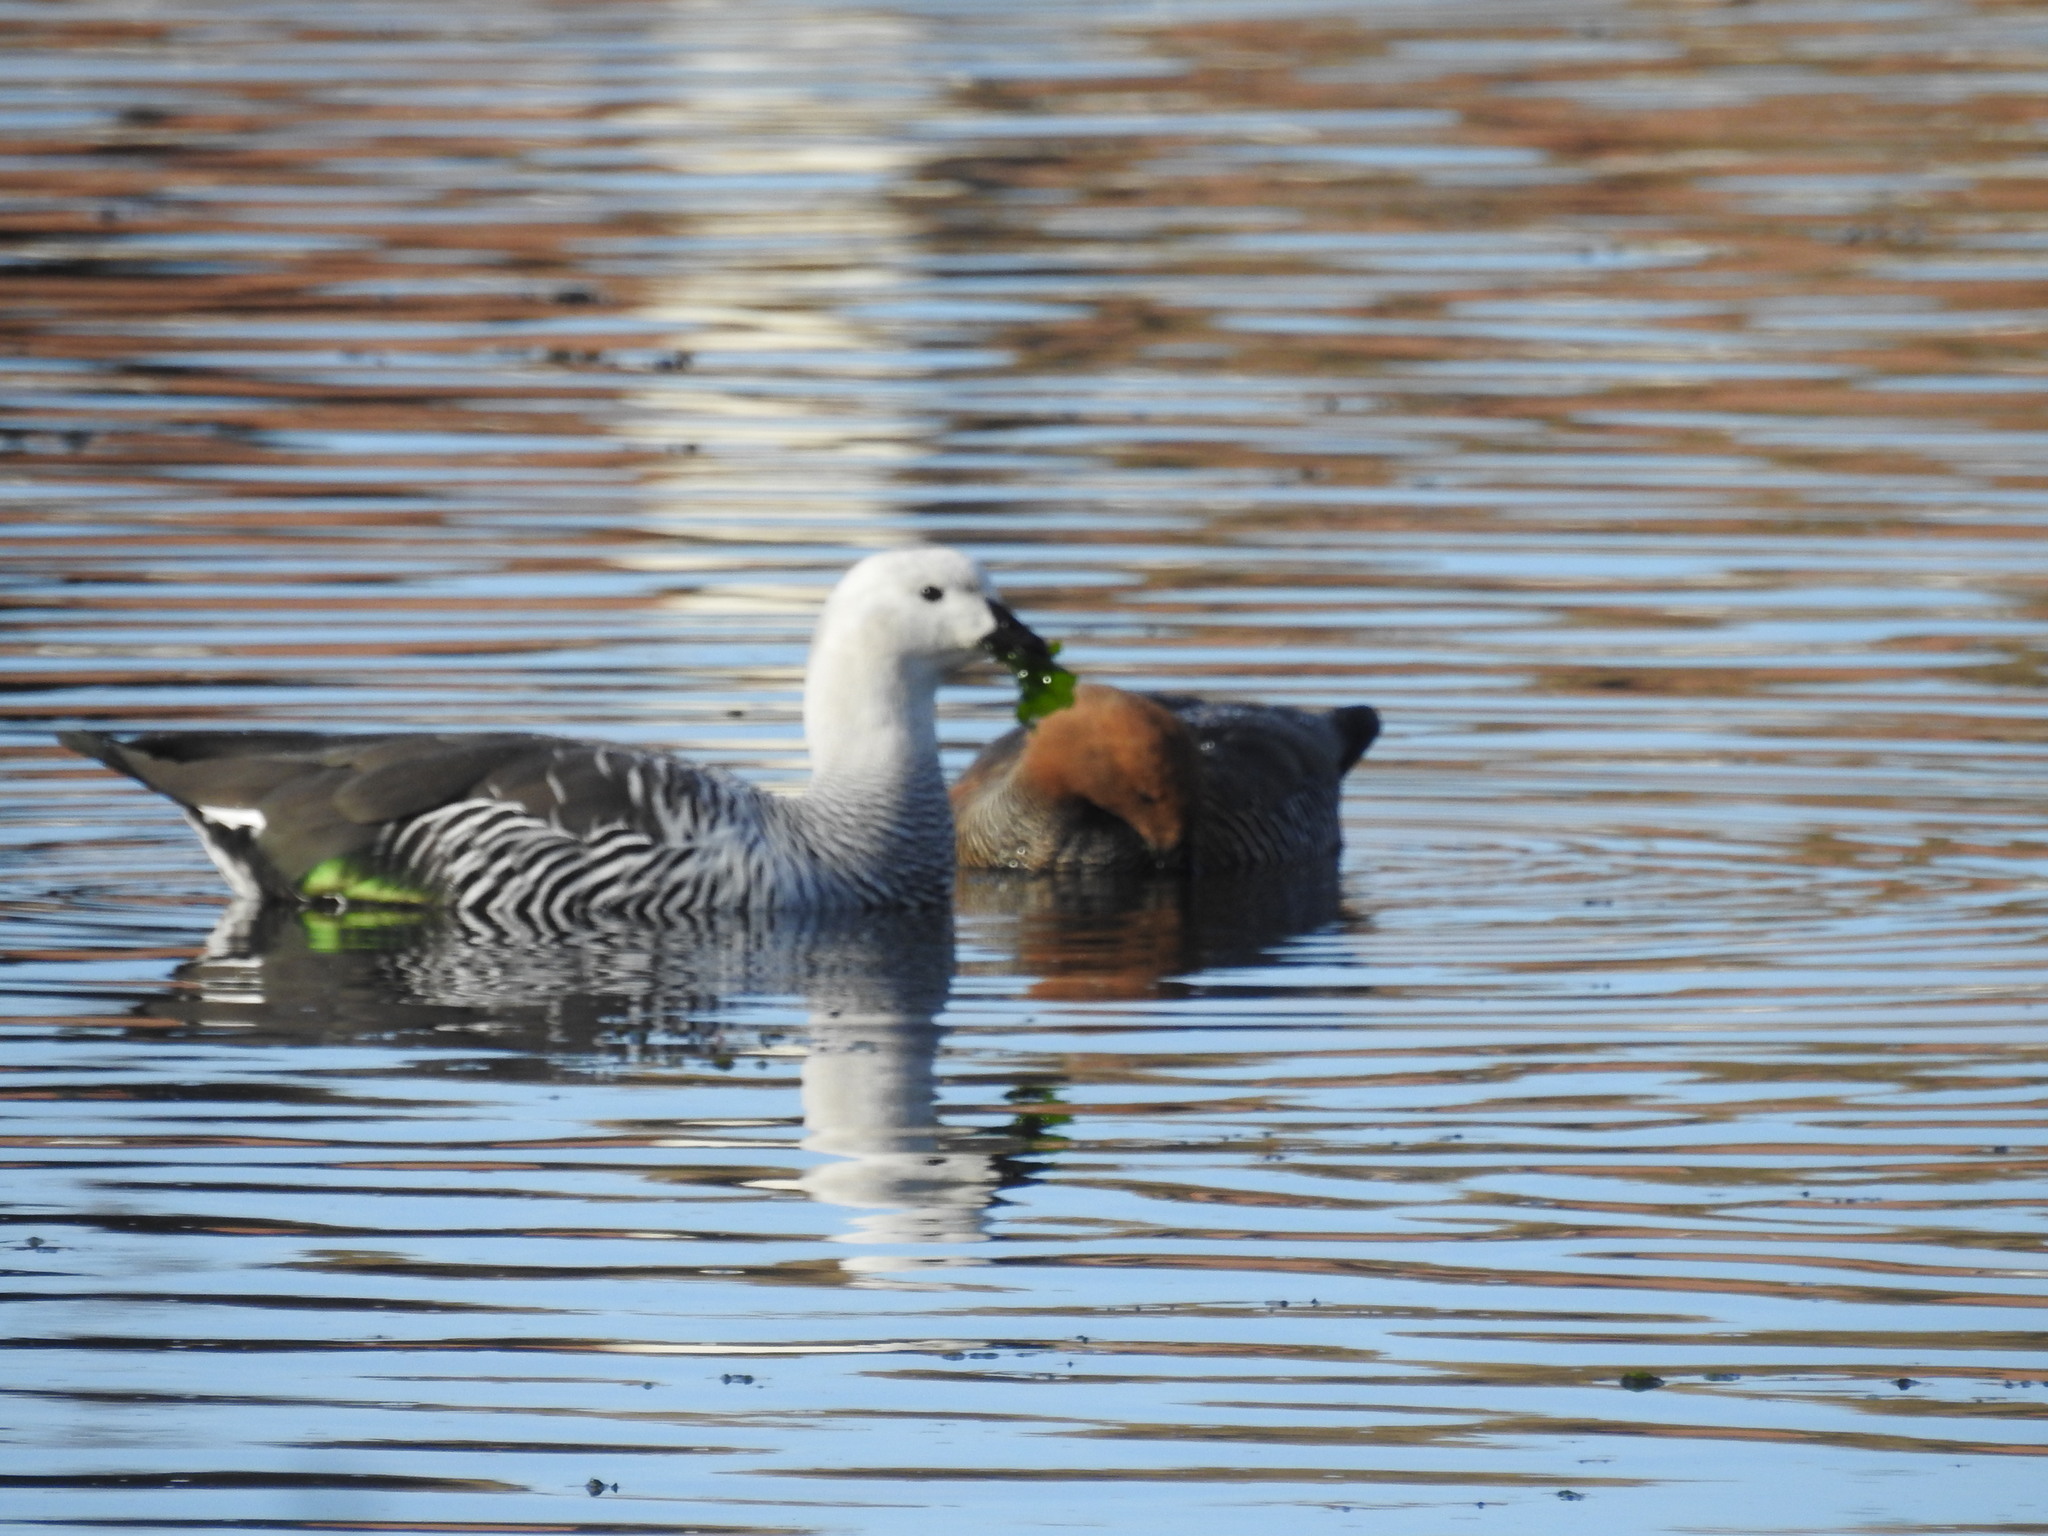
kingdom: Animalia
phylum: Chordata
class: Aves
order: Anseriformes
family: Anatidae
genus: Chloephaga
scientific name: Chloephaga picta
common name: Upland goose
